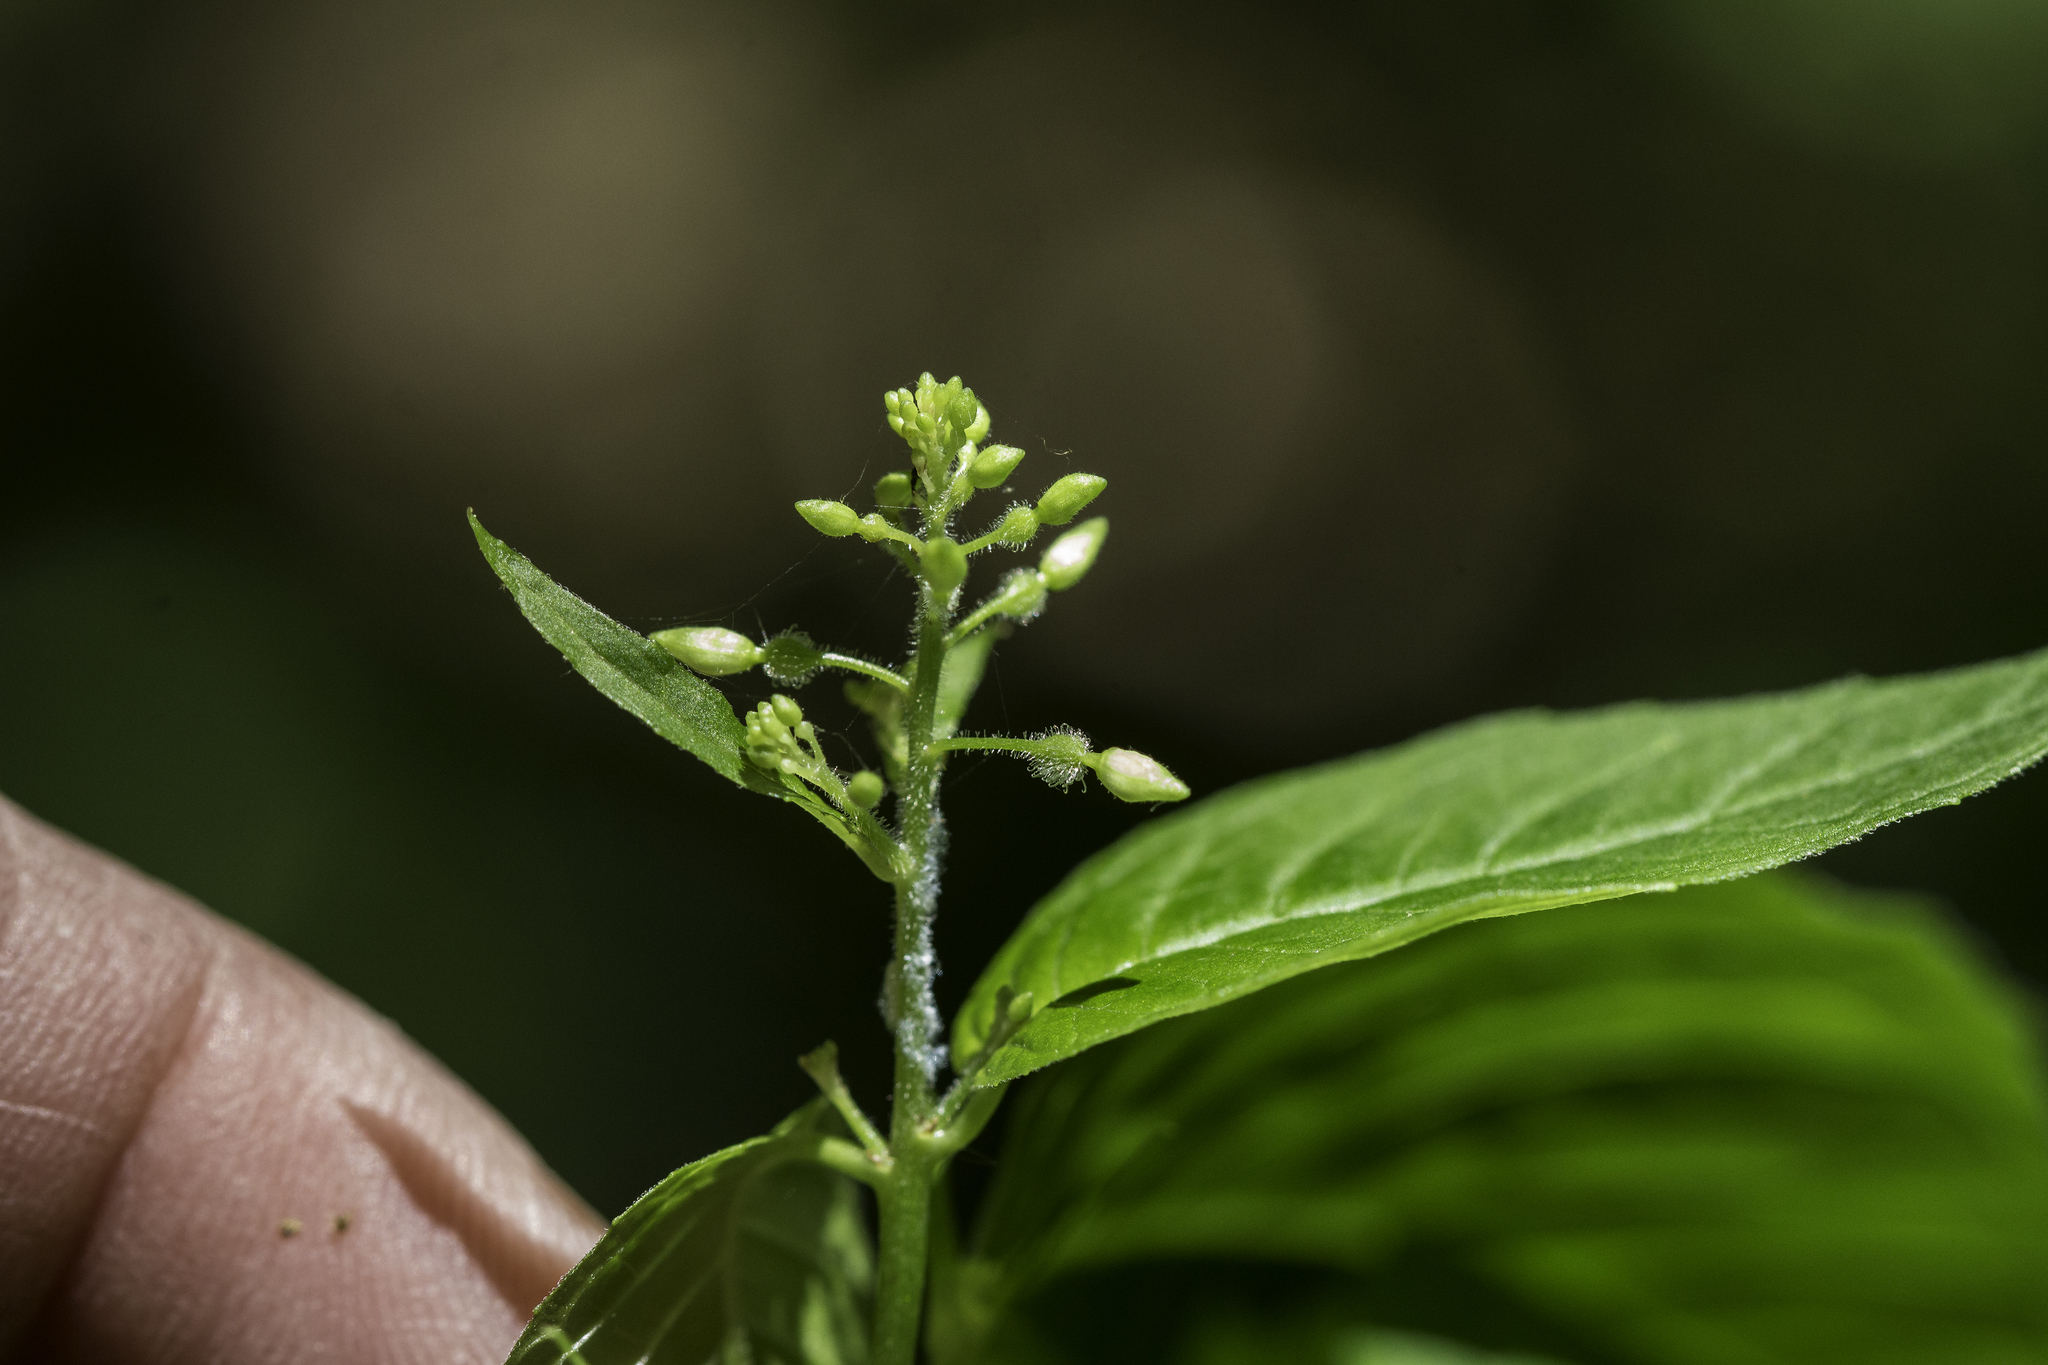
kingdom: Plantae
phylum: Tracheophyta
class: Magnoliopsida
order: Myrtales
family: Onagraceae
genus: Circaea
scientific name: Circaea canadensis
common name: Broad-leaved enchanter's nightshade
